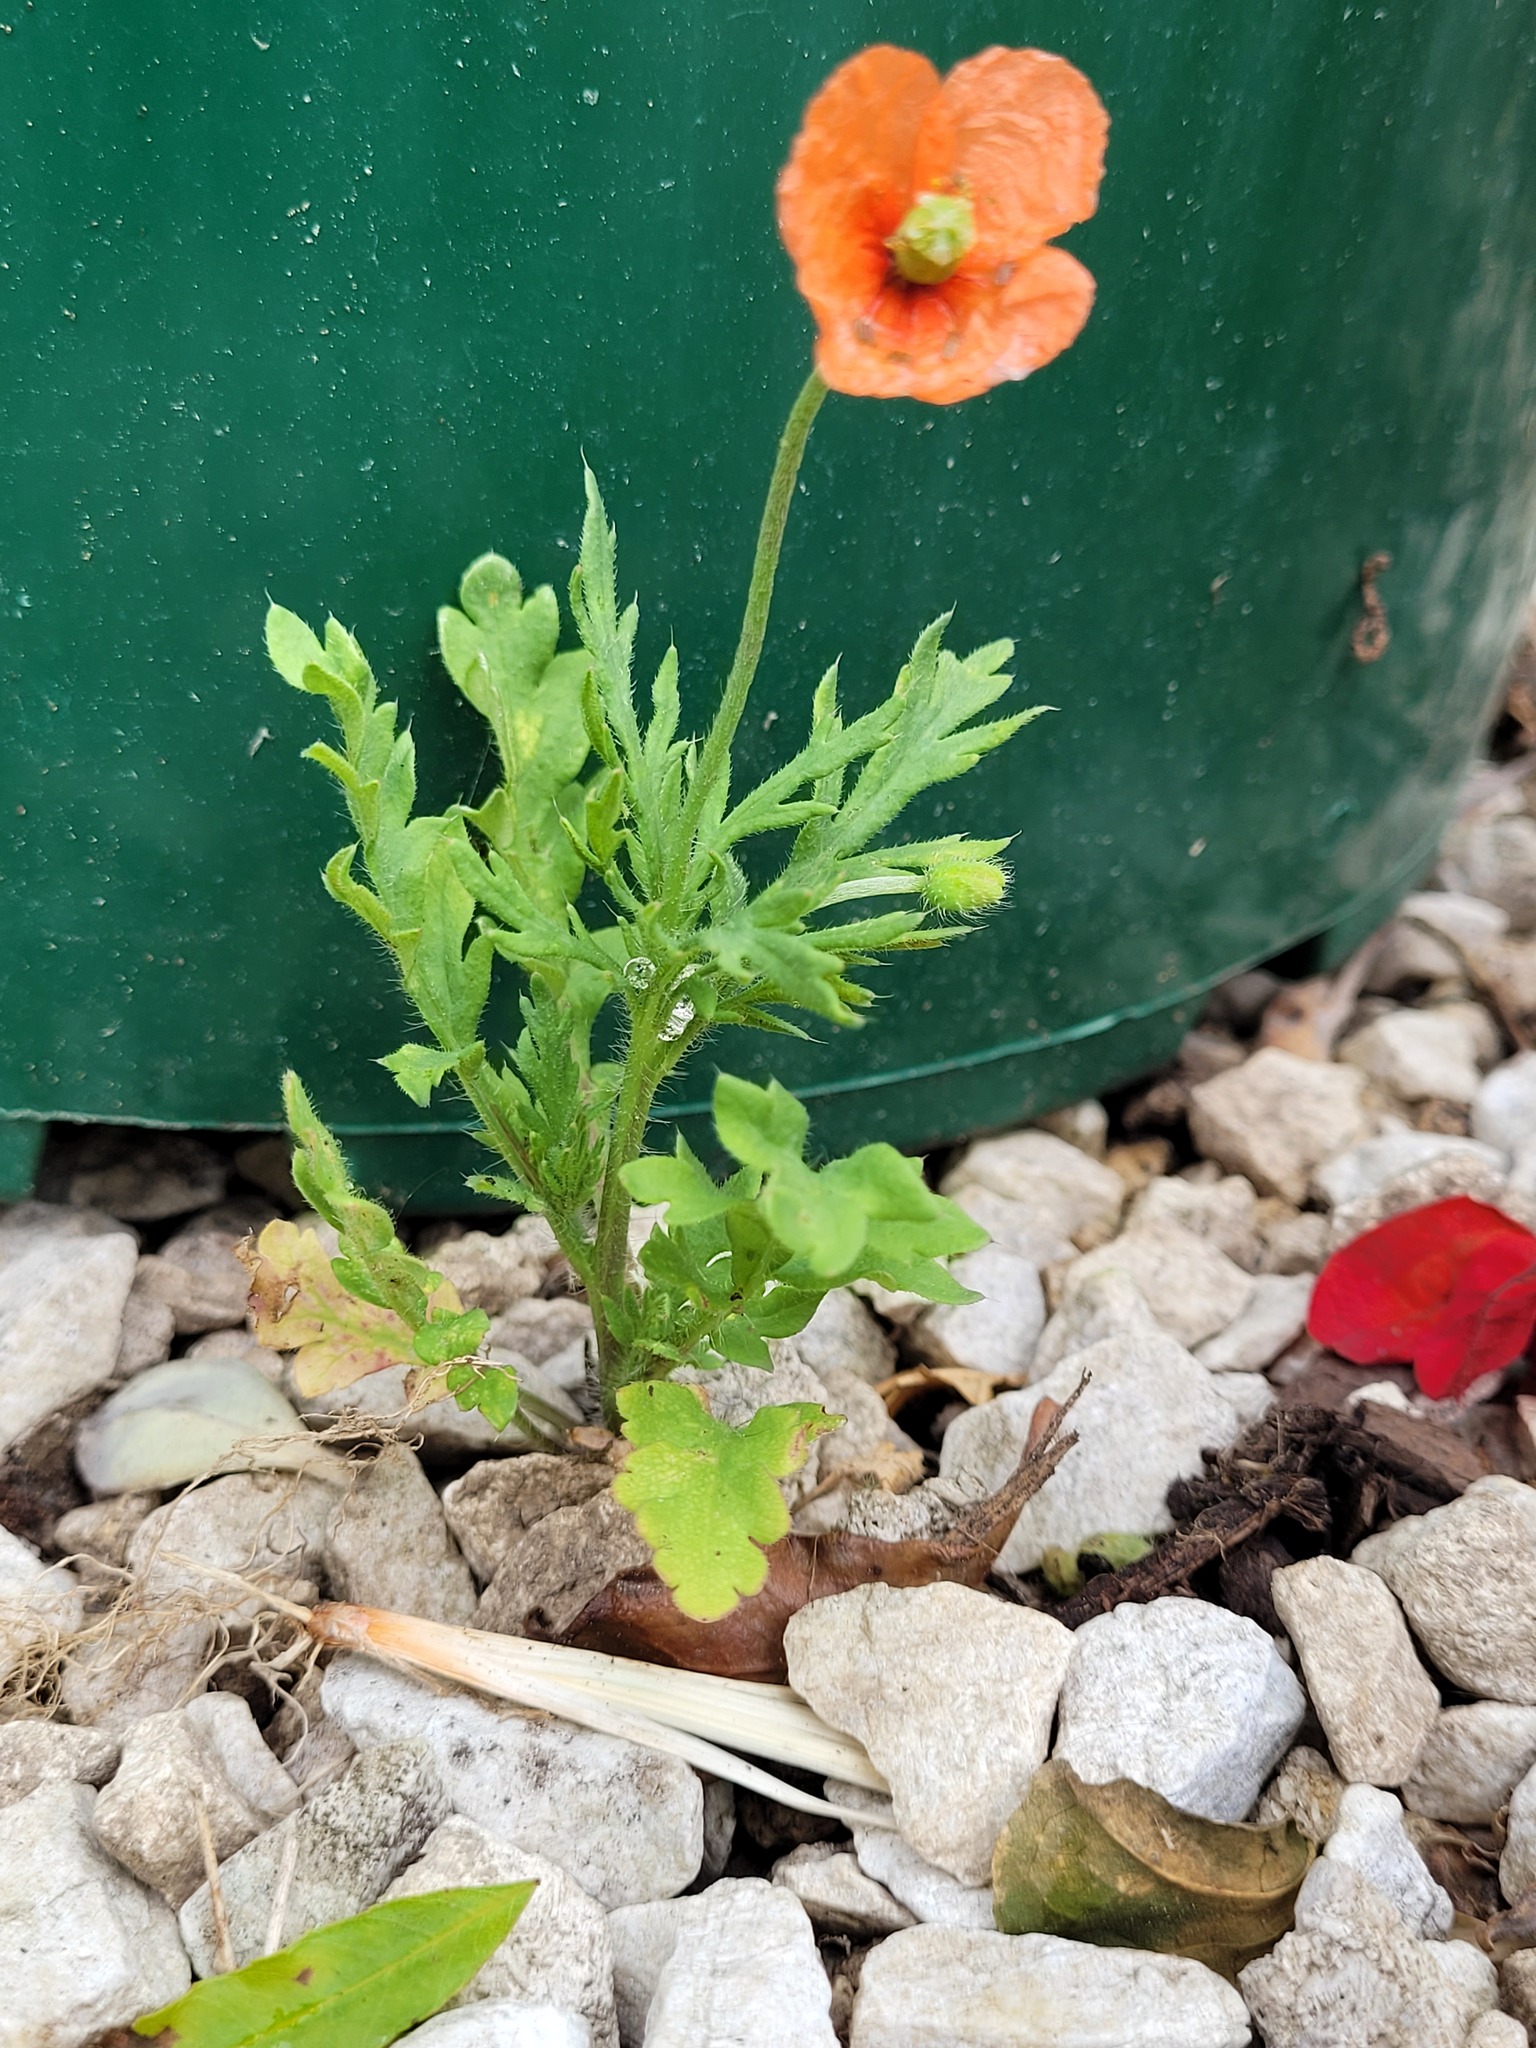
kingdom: Plantae
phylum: Tracheophyta
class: Magnoliopsida
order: Ranunculales
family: Papaveraceae
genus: Papaver
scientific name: Papaver dubium
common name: Long-headed poppy
